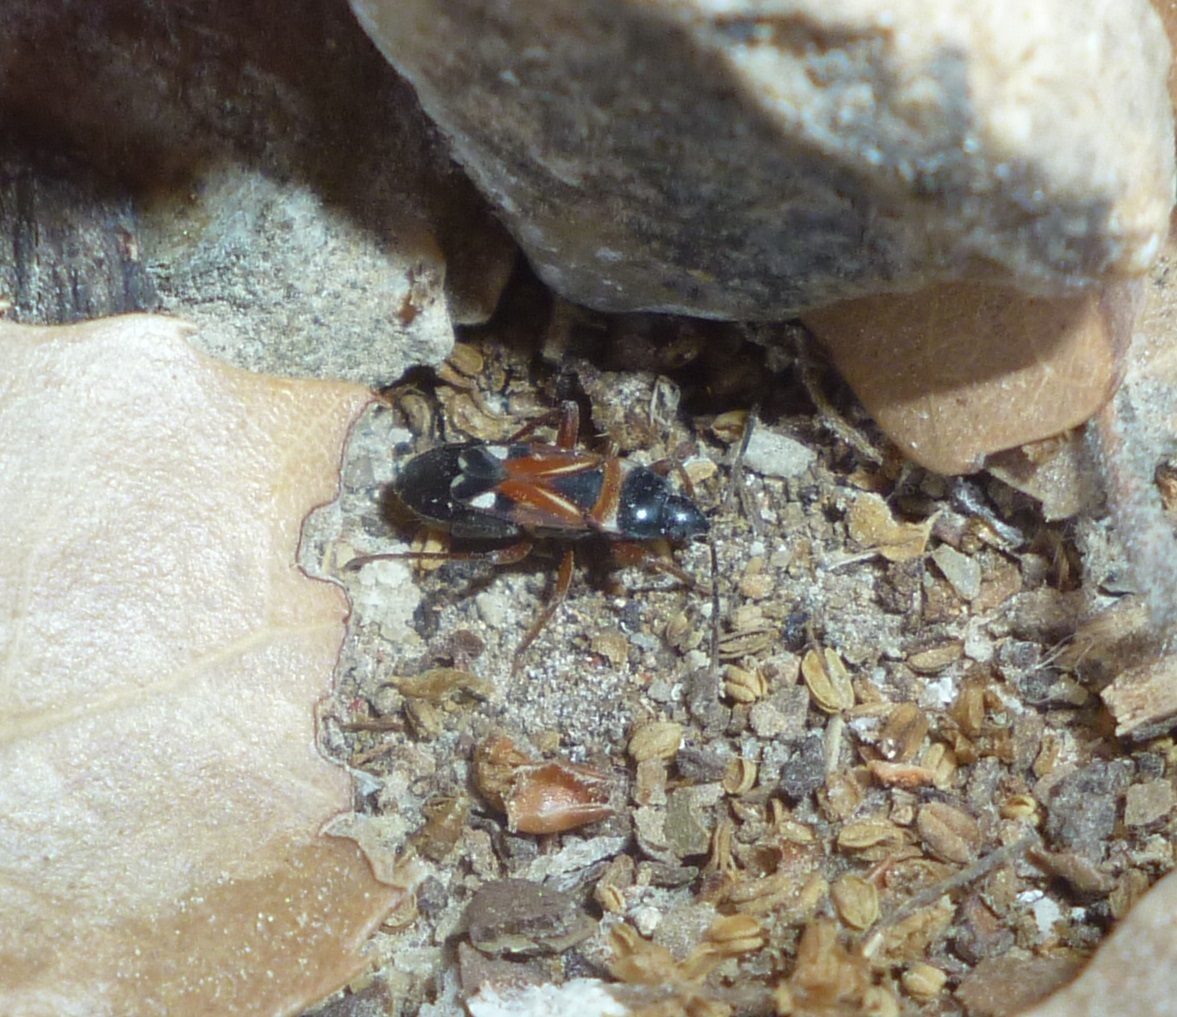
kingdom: Animalia
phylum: Arthropoda
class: Insecta
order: Hemiptera
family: Rhyparochromidae
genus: Raglius
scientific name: Raglius alboacuminatus
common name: Dirt-colored seed bug
